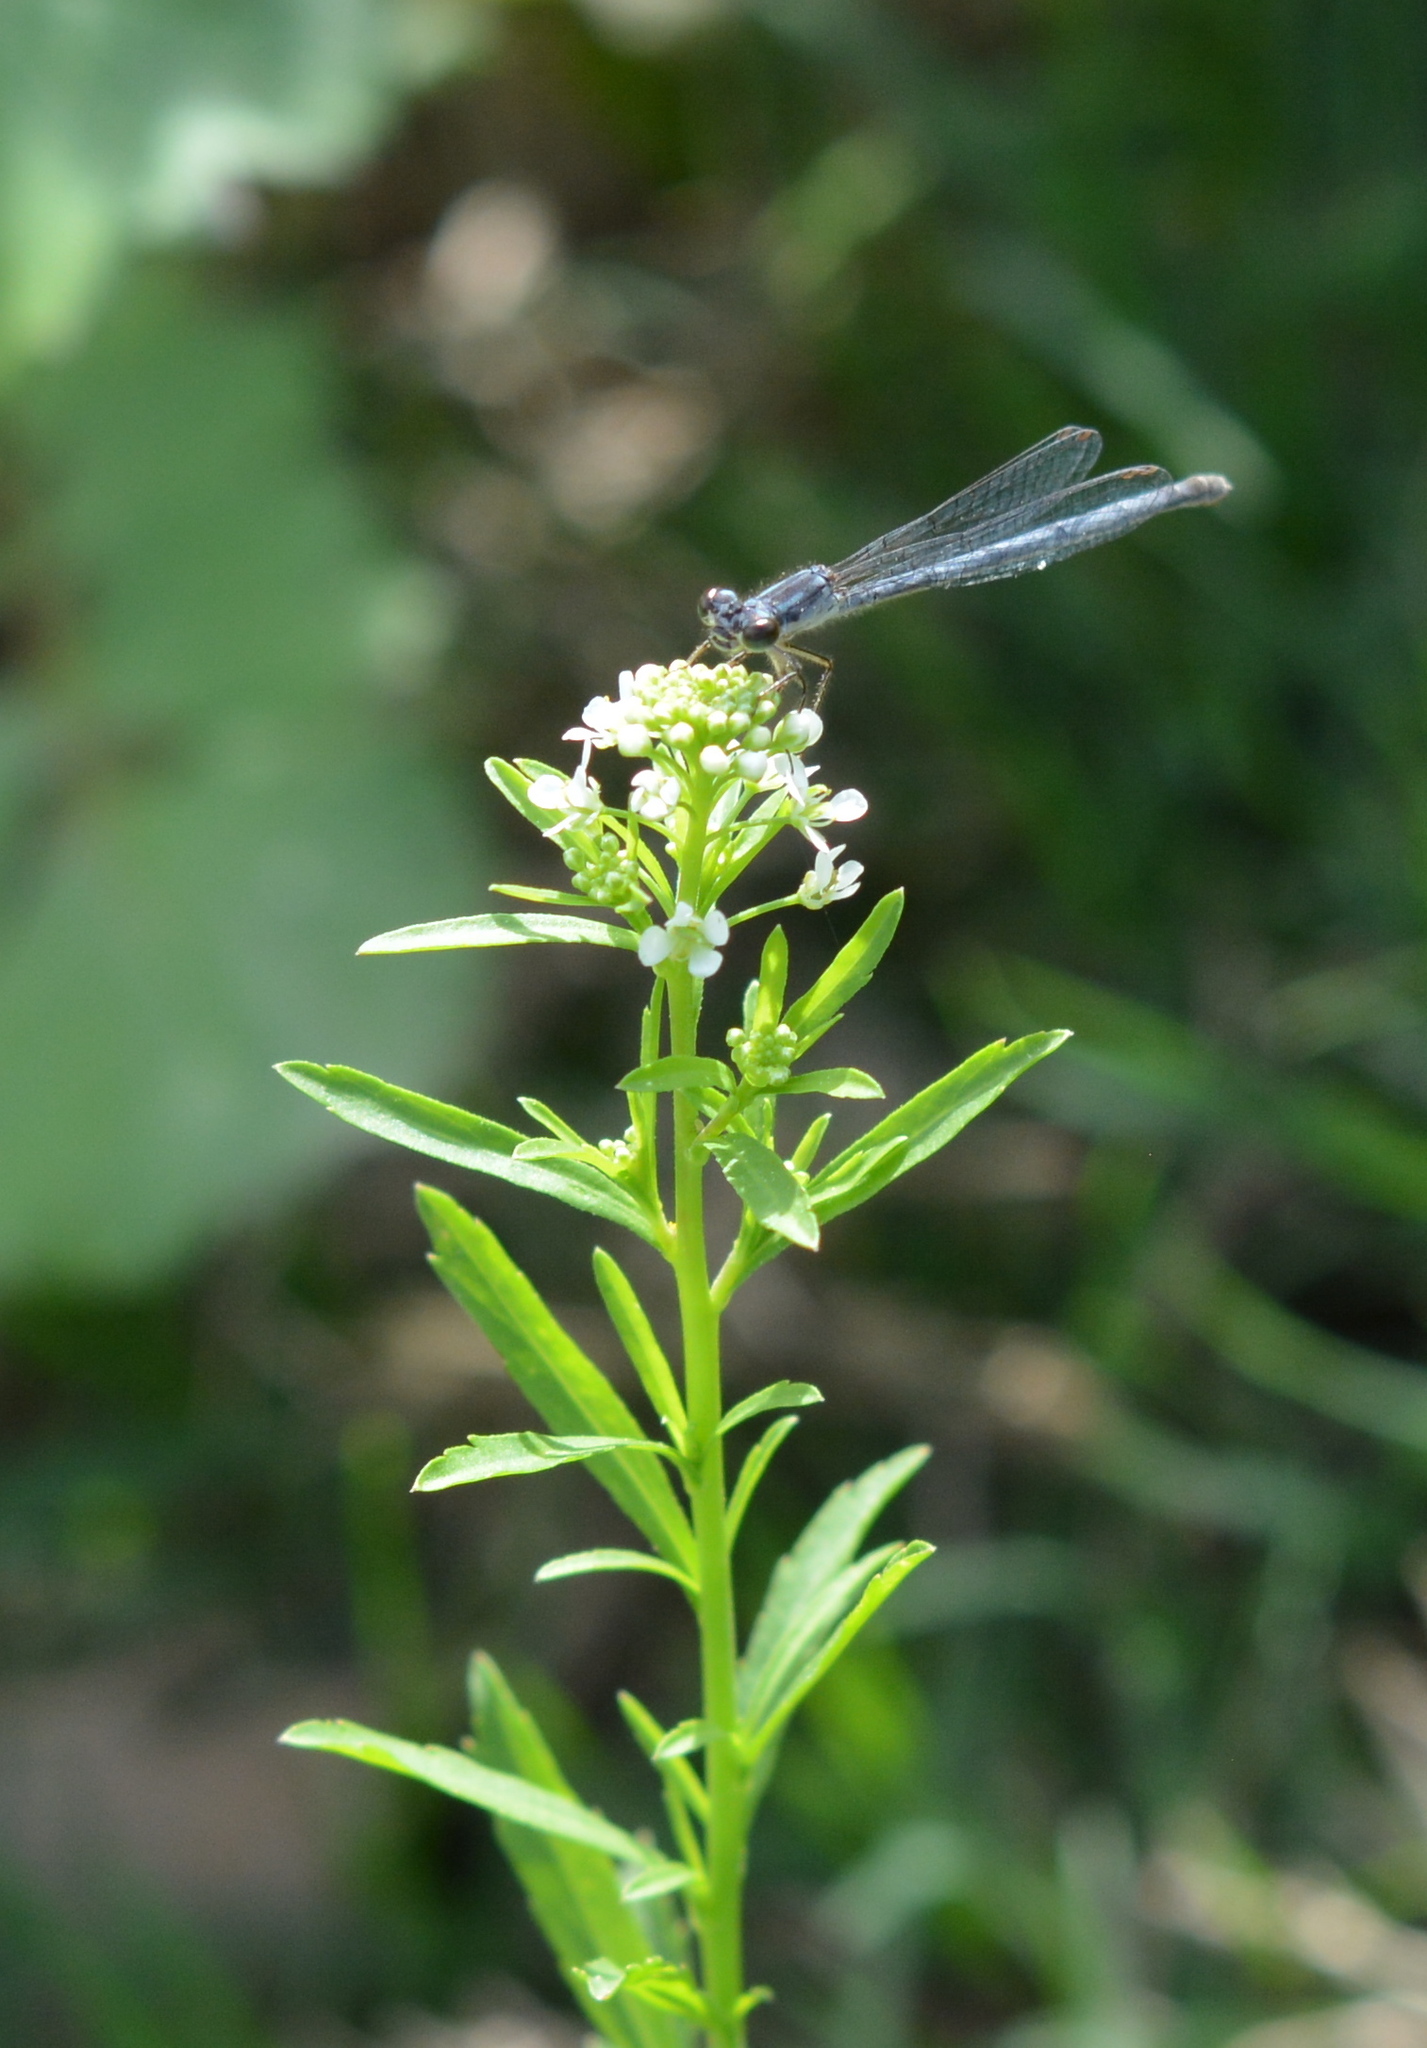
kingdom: Animalia
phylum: Arthropoda
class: Insecta
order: Odonata
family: Coenagrionidae
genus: Ischnura
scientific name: Ischnura posita
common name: Fragile forktail
